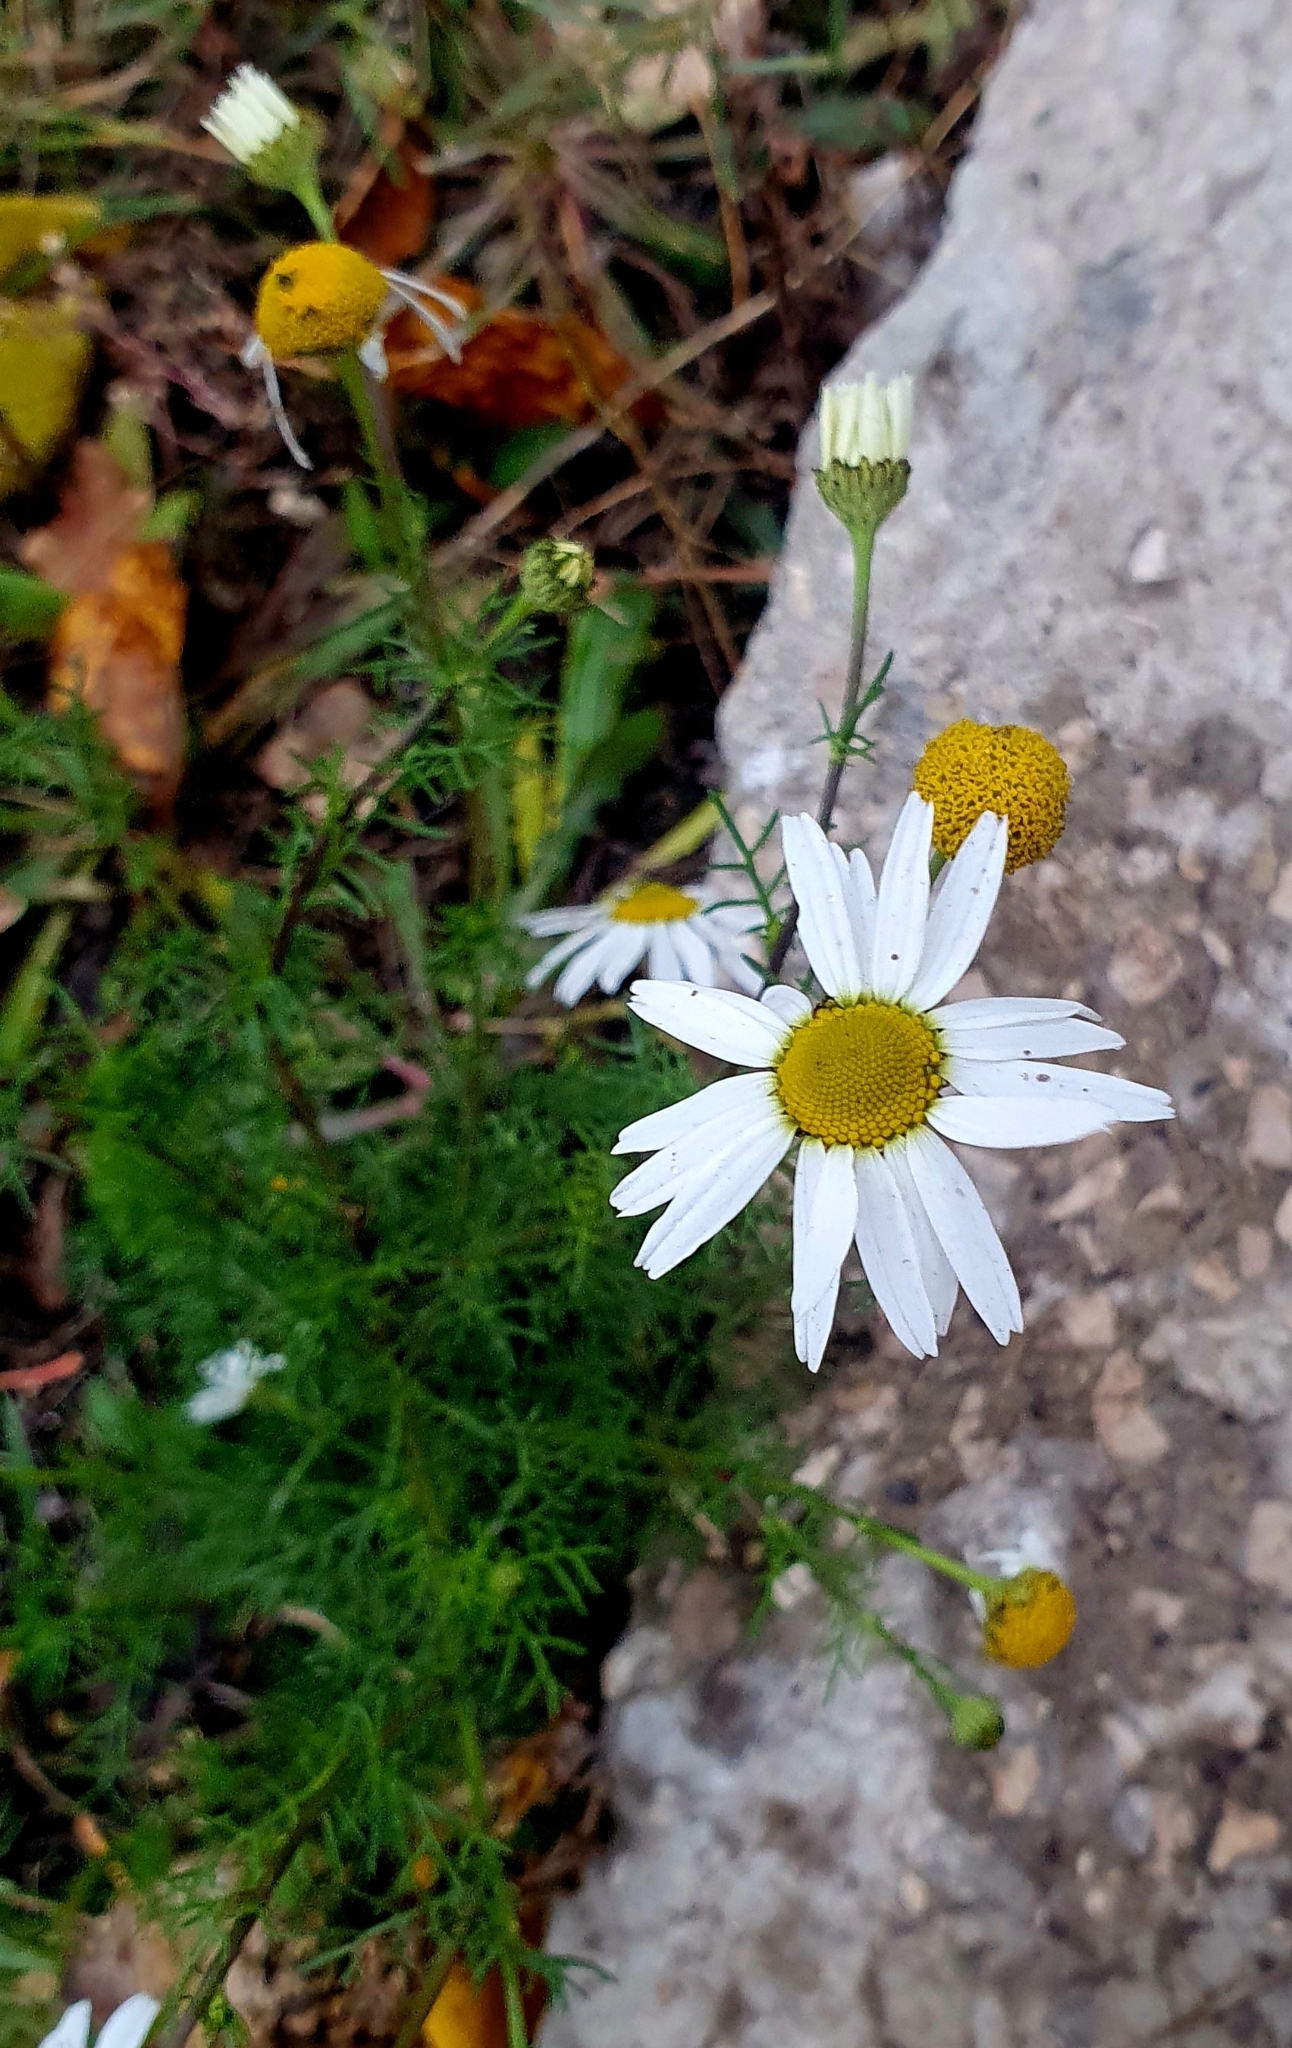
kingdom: Plantae
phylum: Tracheophyta
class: Magnoliopsida
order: Asterales
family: Asteraceae
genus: Tripleurospermum
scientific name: Tripleurospermum inodorum
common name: Scentless mayweed
